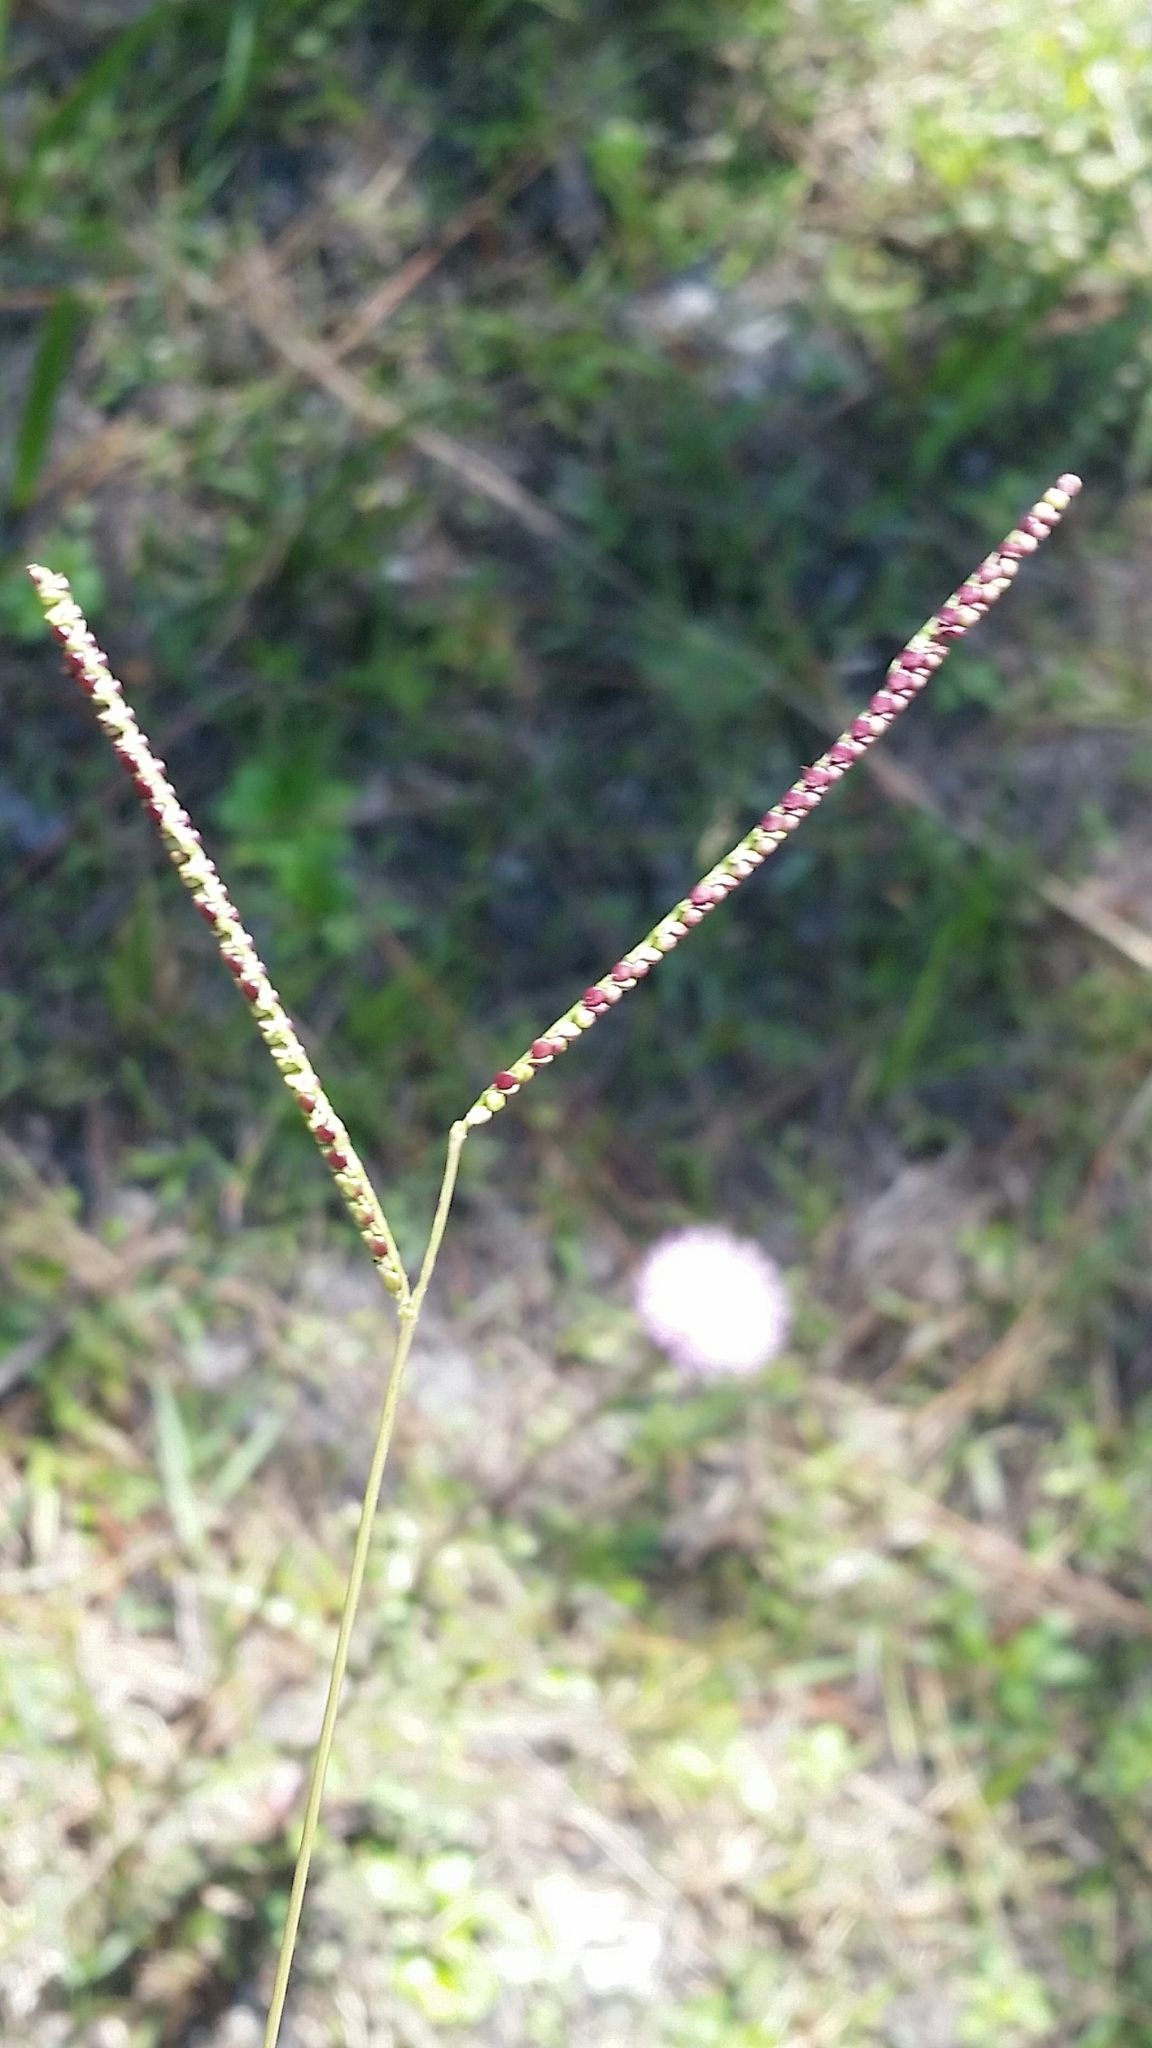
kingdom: Plantae
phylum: Tracheophyta
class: Liliopsida
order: Poales
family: Poaceae
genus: Paspalum
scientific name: Paspalum setaceum
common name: Slender paspalum
